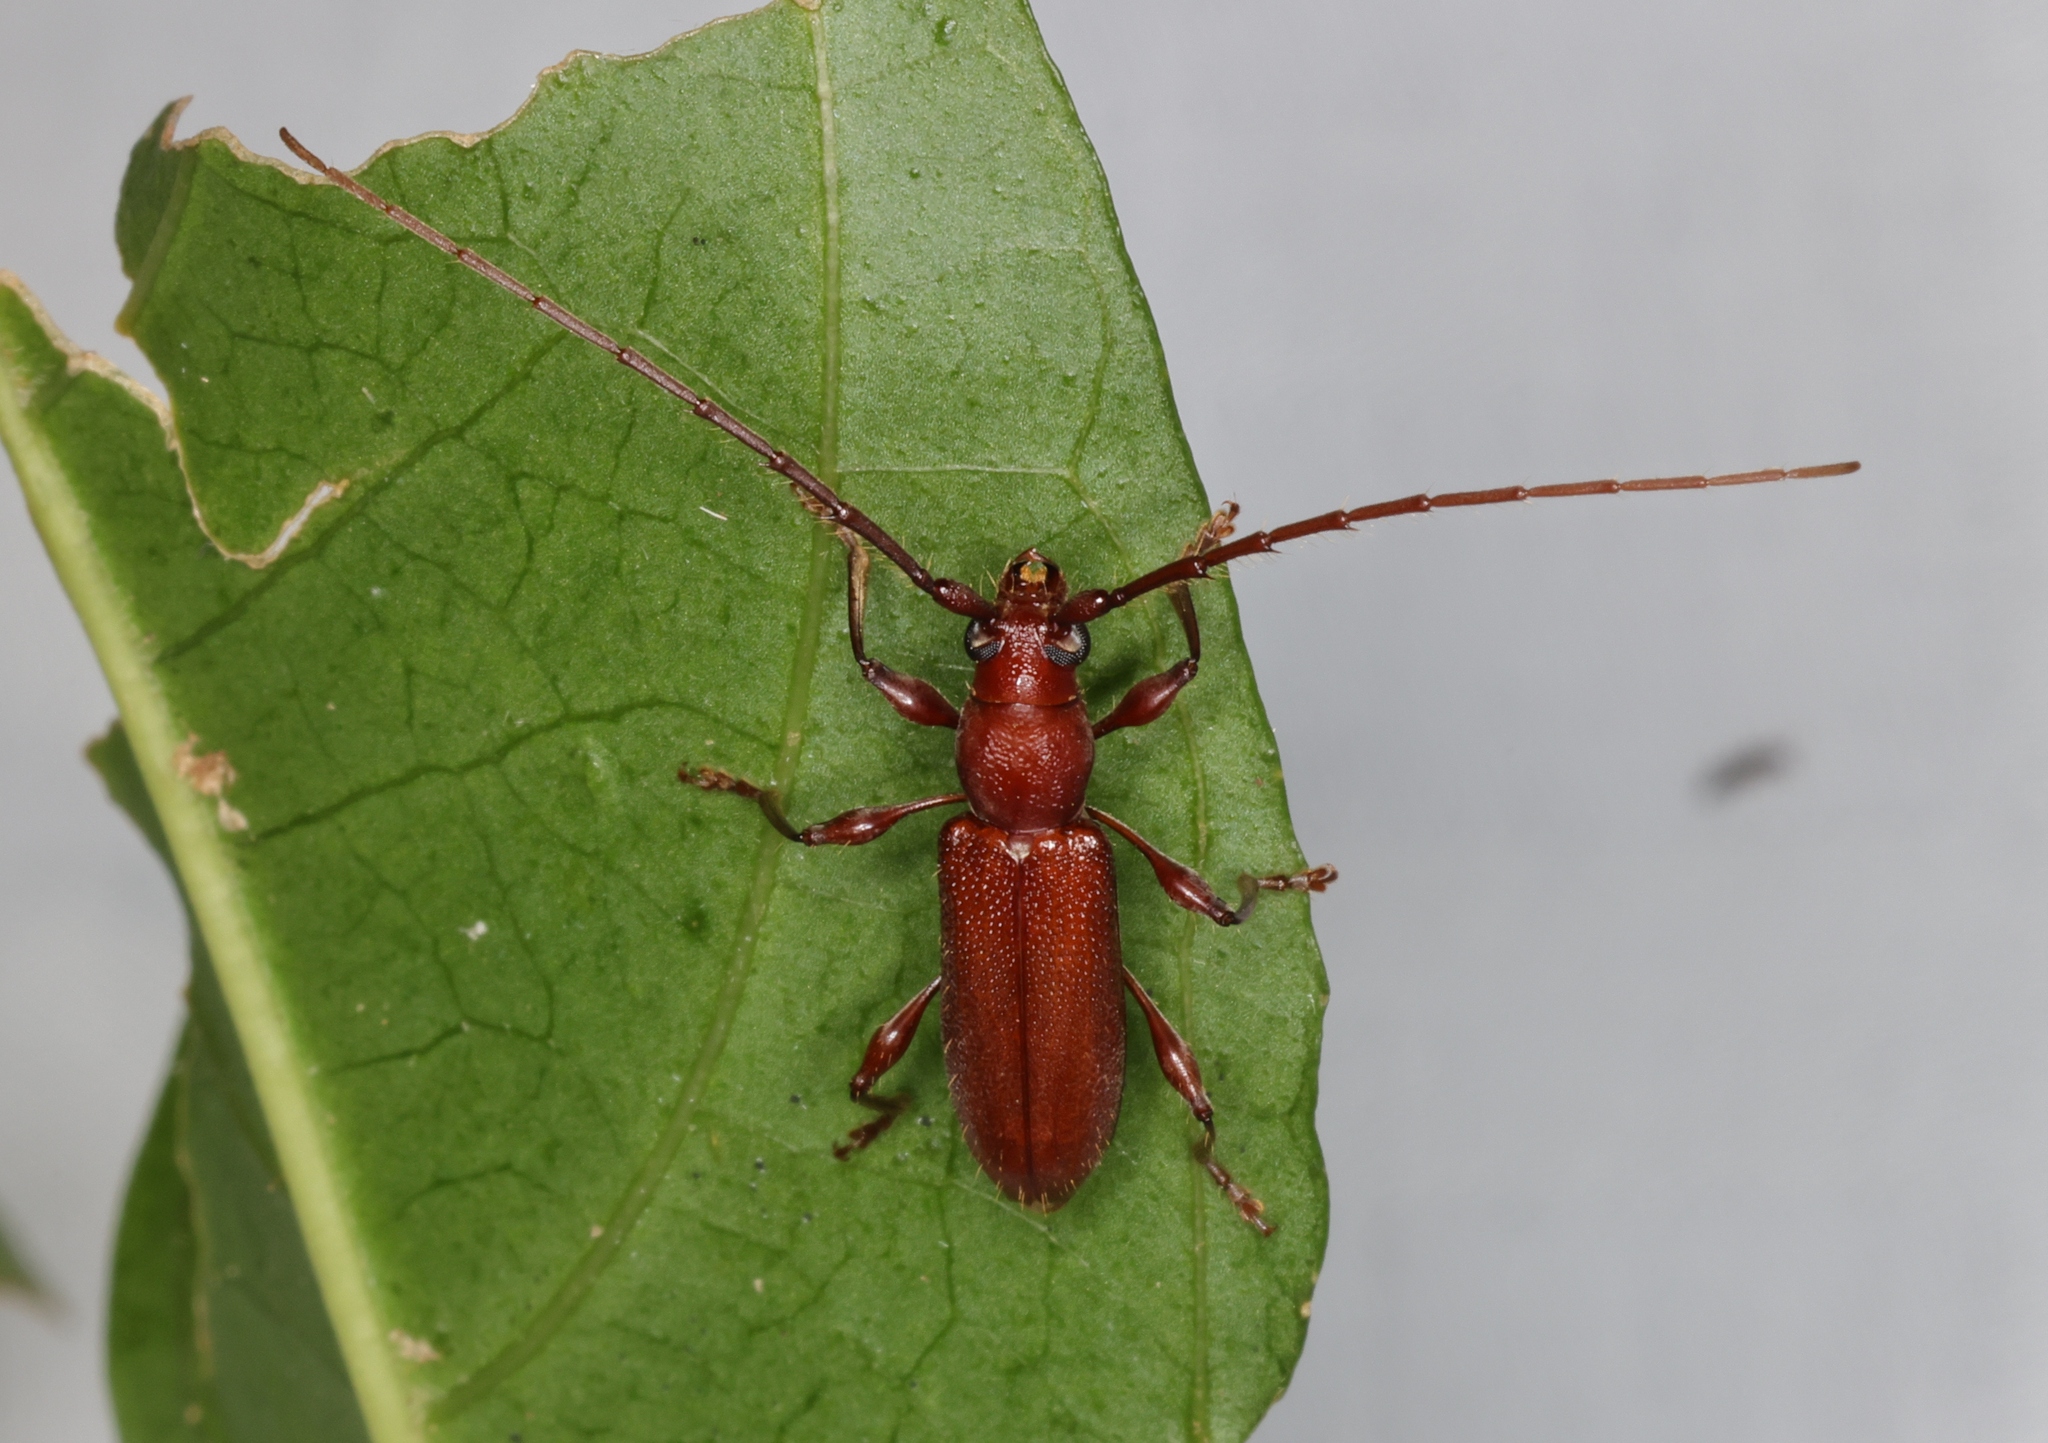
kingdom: Animalia
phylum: Arthropoda
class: Insecta
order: Coleoptera
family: Cerambycidae
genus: Nysina
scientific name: Nysina rufescens
